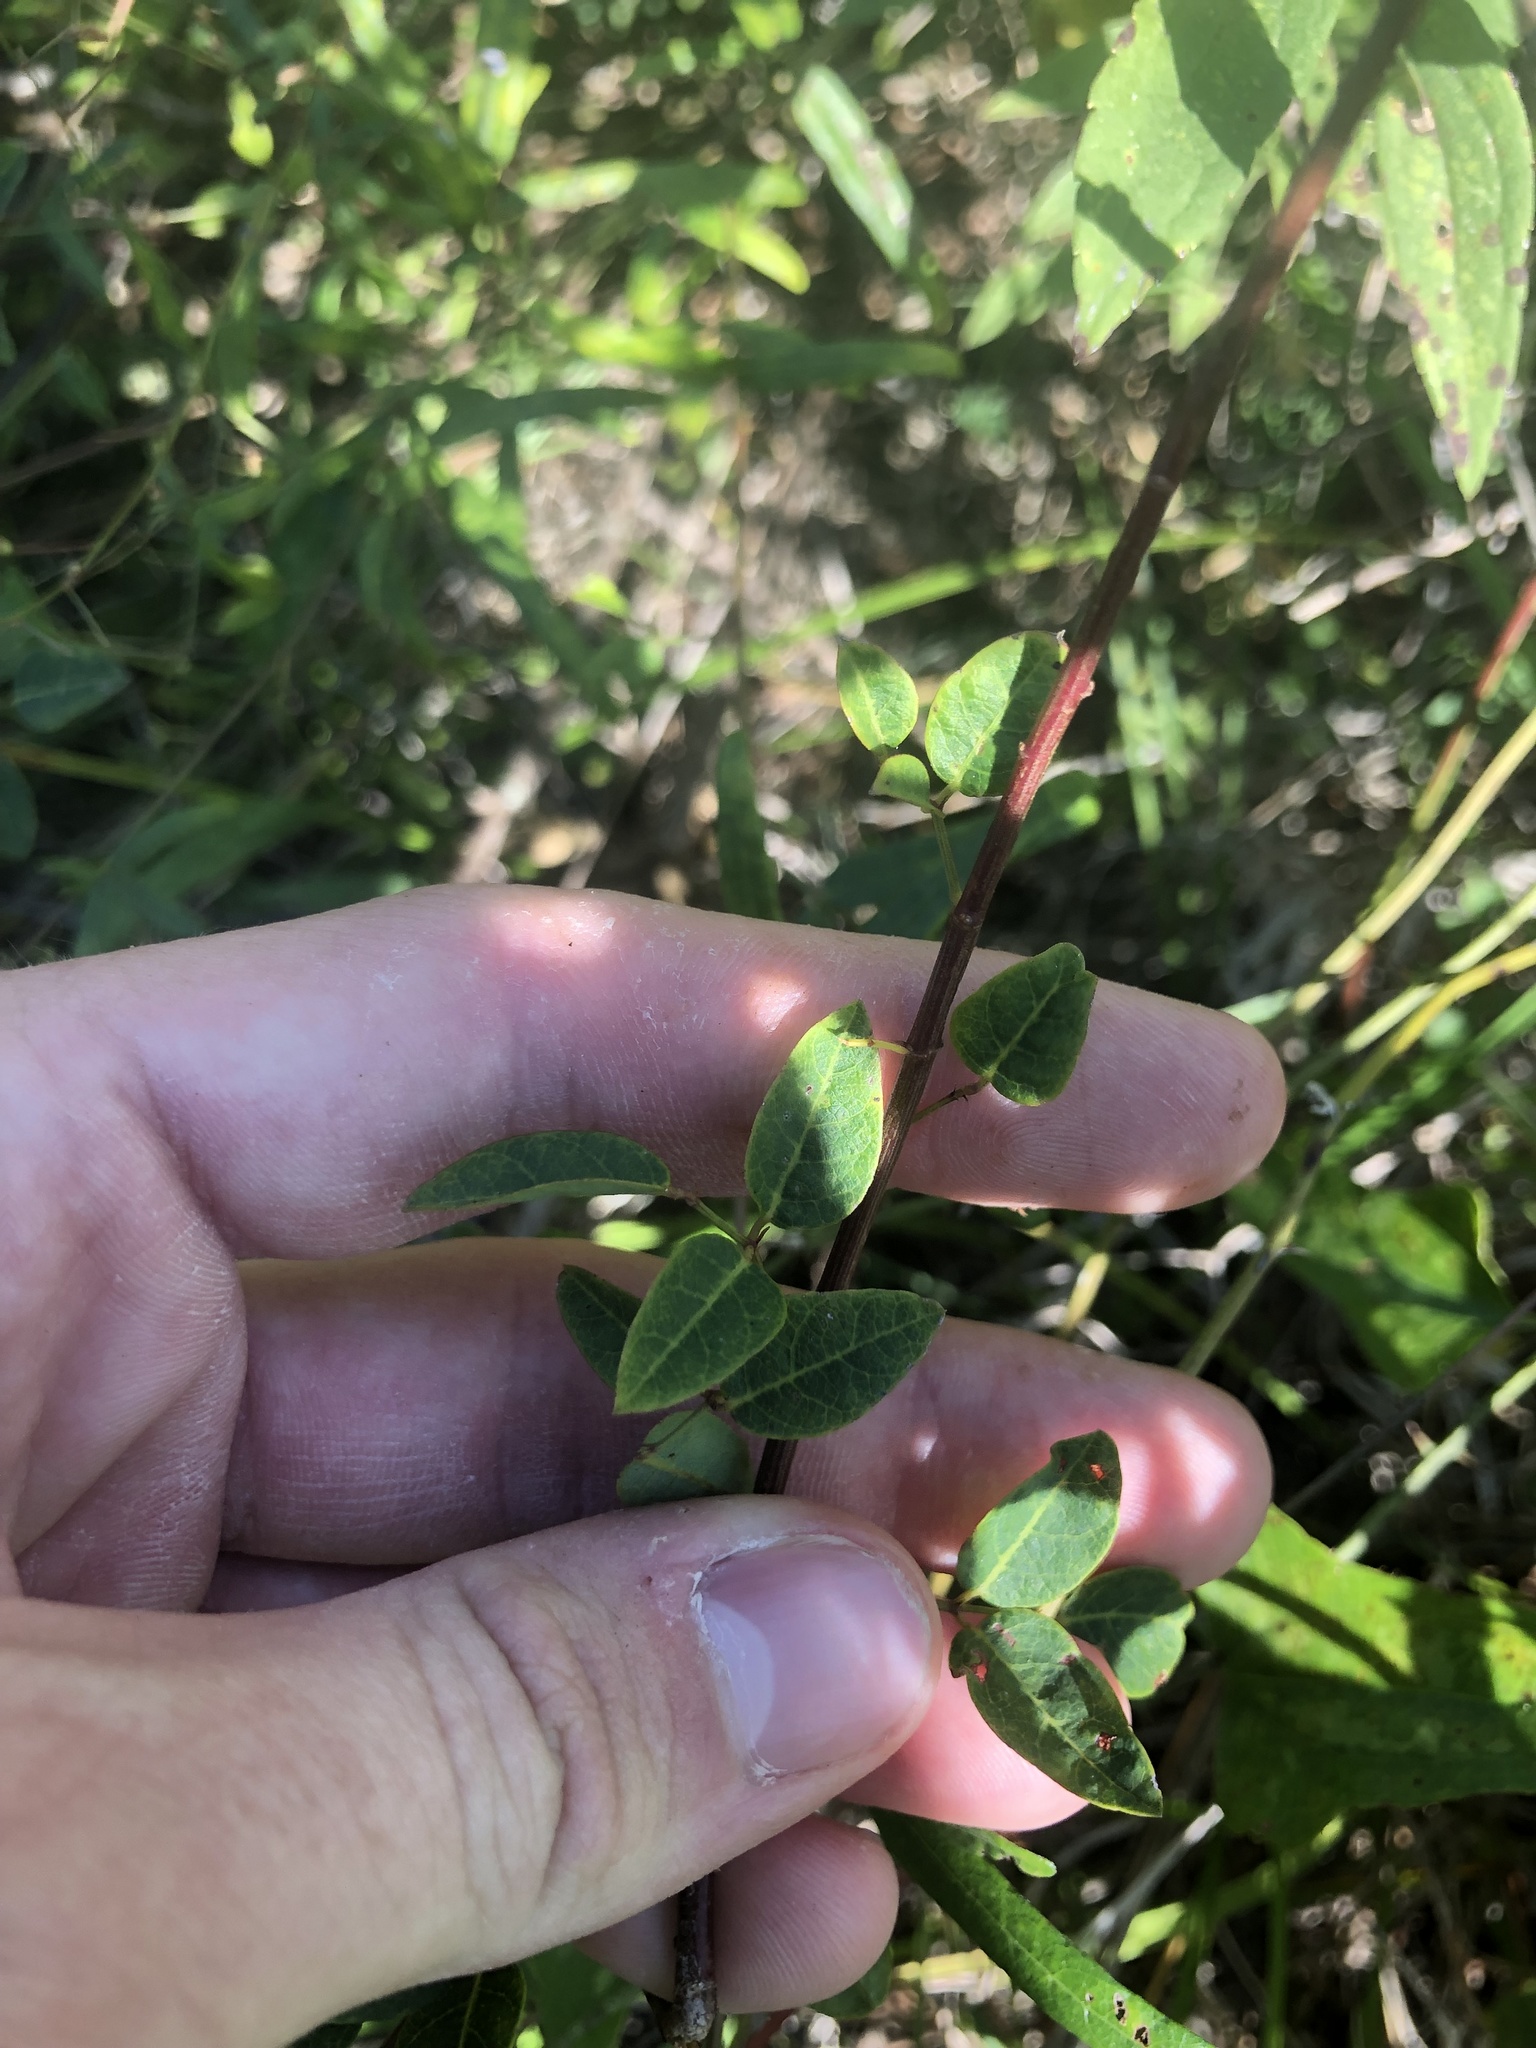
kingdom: Plantae
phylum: Tracheophyta
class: Magnoliopsida
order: Fabales
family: Fabaceae
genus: Desmodium
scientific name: Desmodium marilandicum
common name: Maryland tick-trefoil
